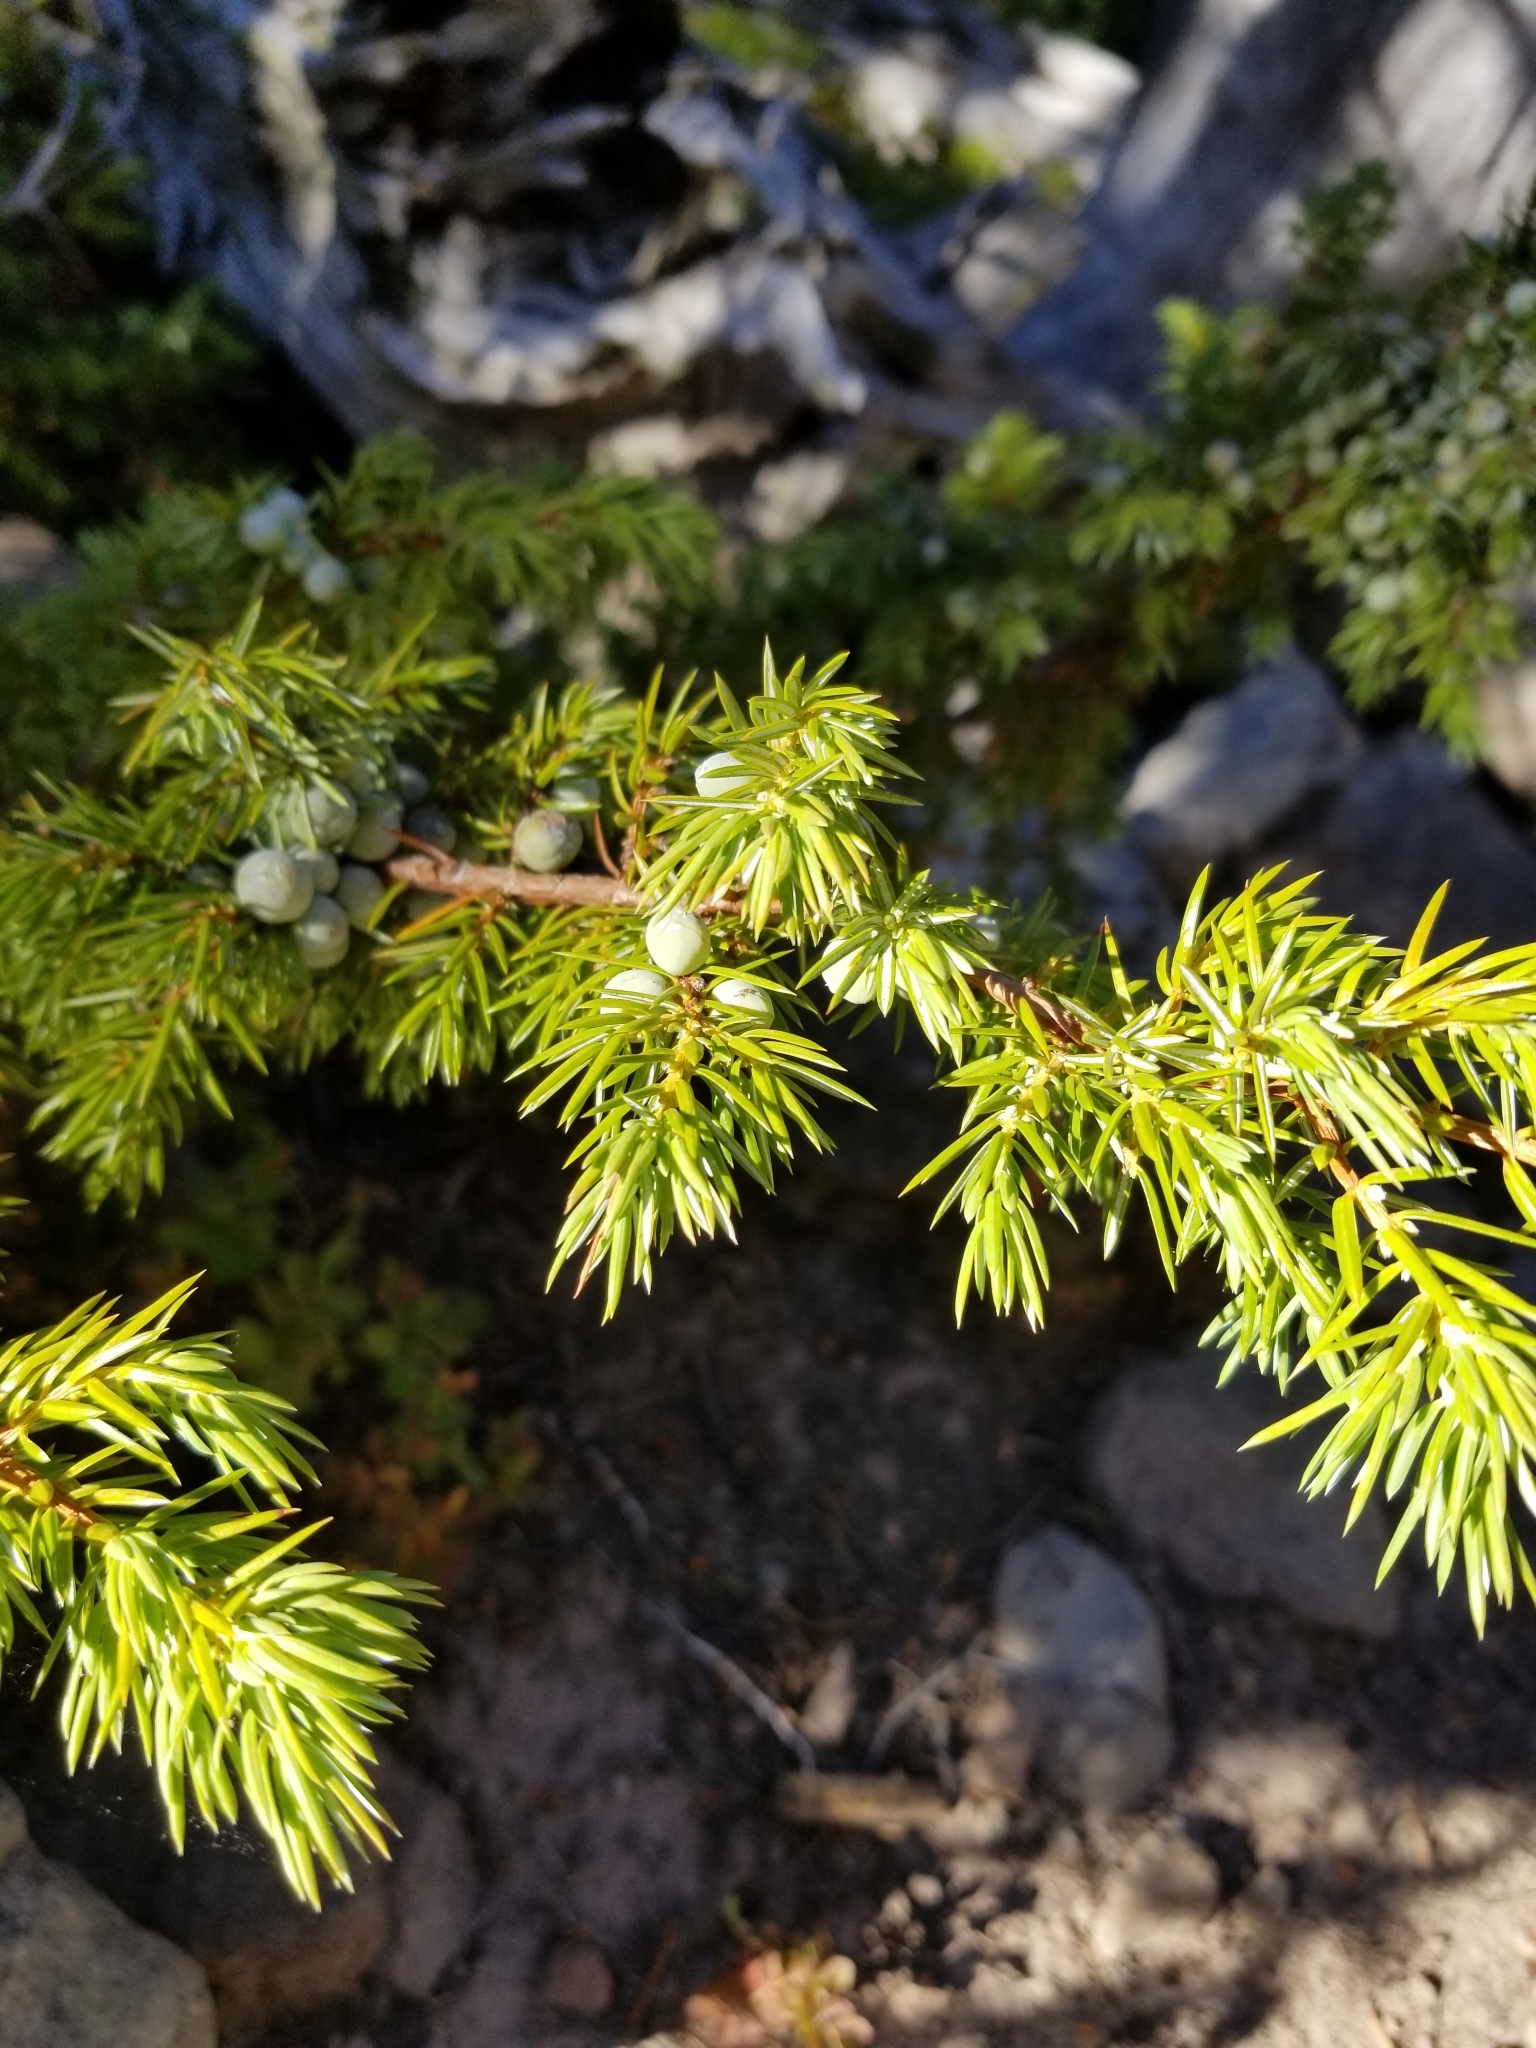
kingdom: Plantae
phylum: Tracheophyta
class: Pinopsida
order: Pinales
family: Cupressaceae
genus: Juniperus
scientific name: Juniperus communis
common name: Common juniper
